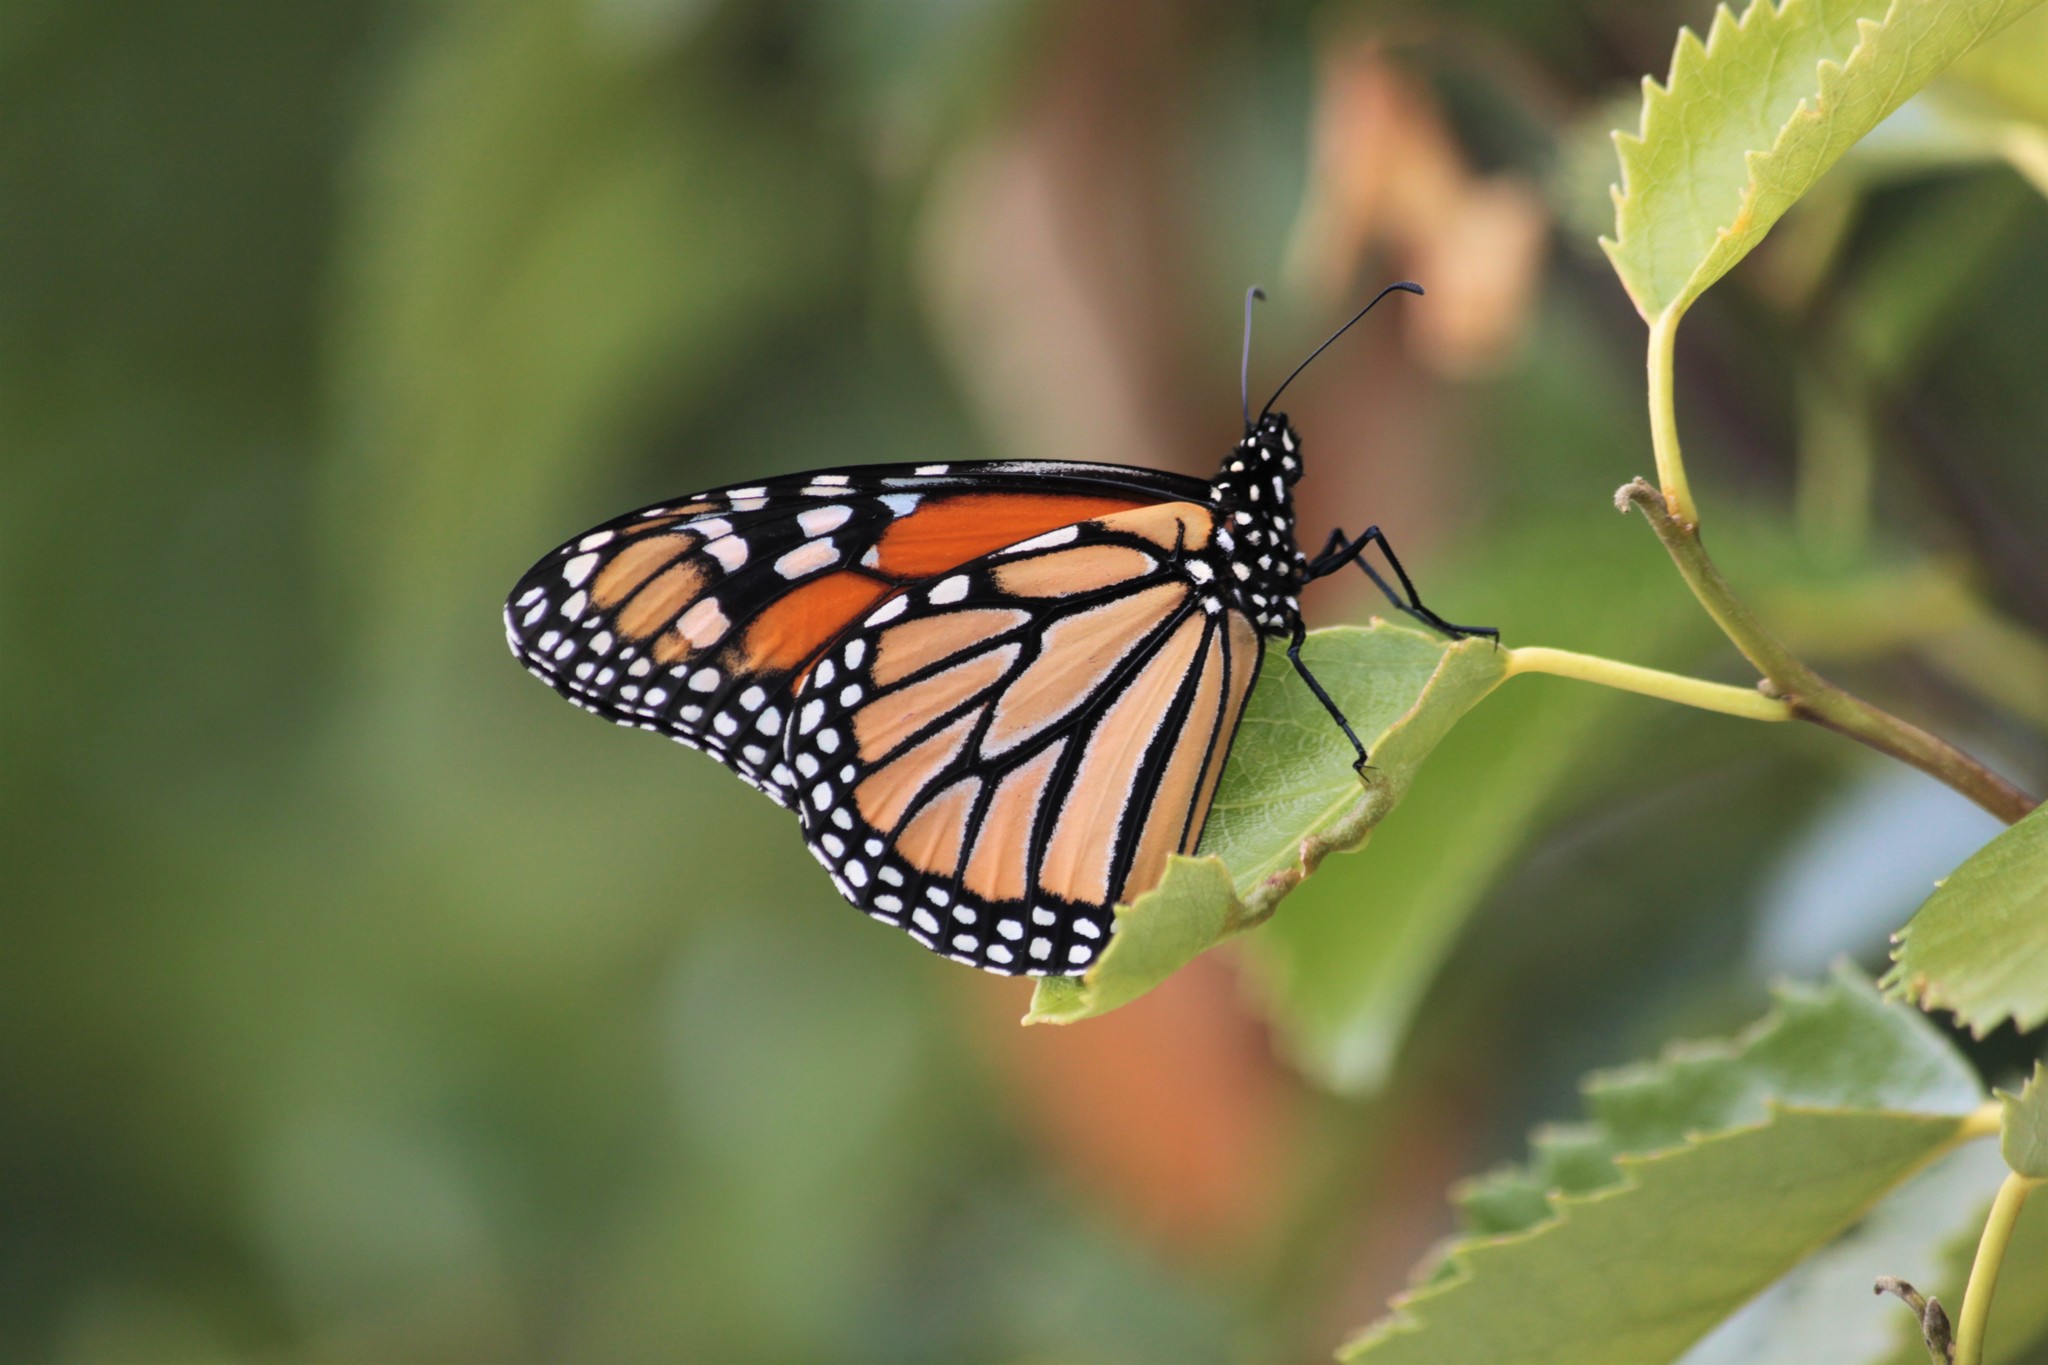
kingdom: Animalia
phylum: Arthropoda
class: Insecta
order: Lepidoptera
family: Nymphalidae
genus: Danaus
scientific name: Danaus plexippus
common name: Monarch
